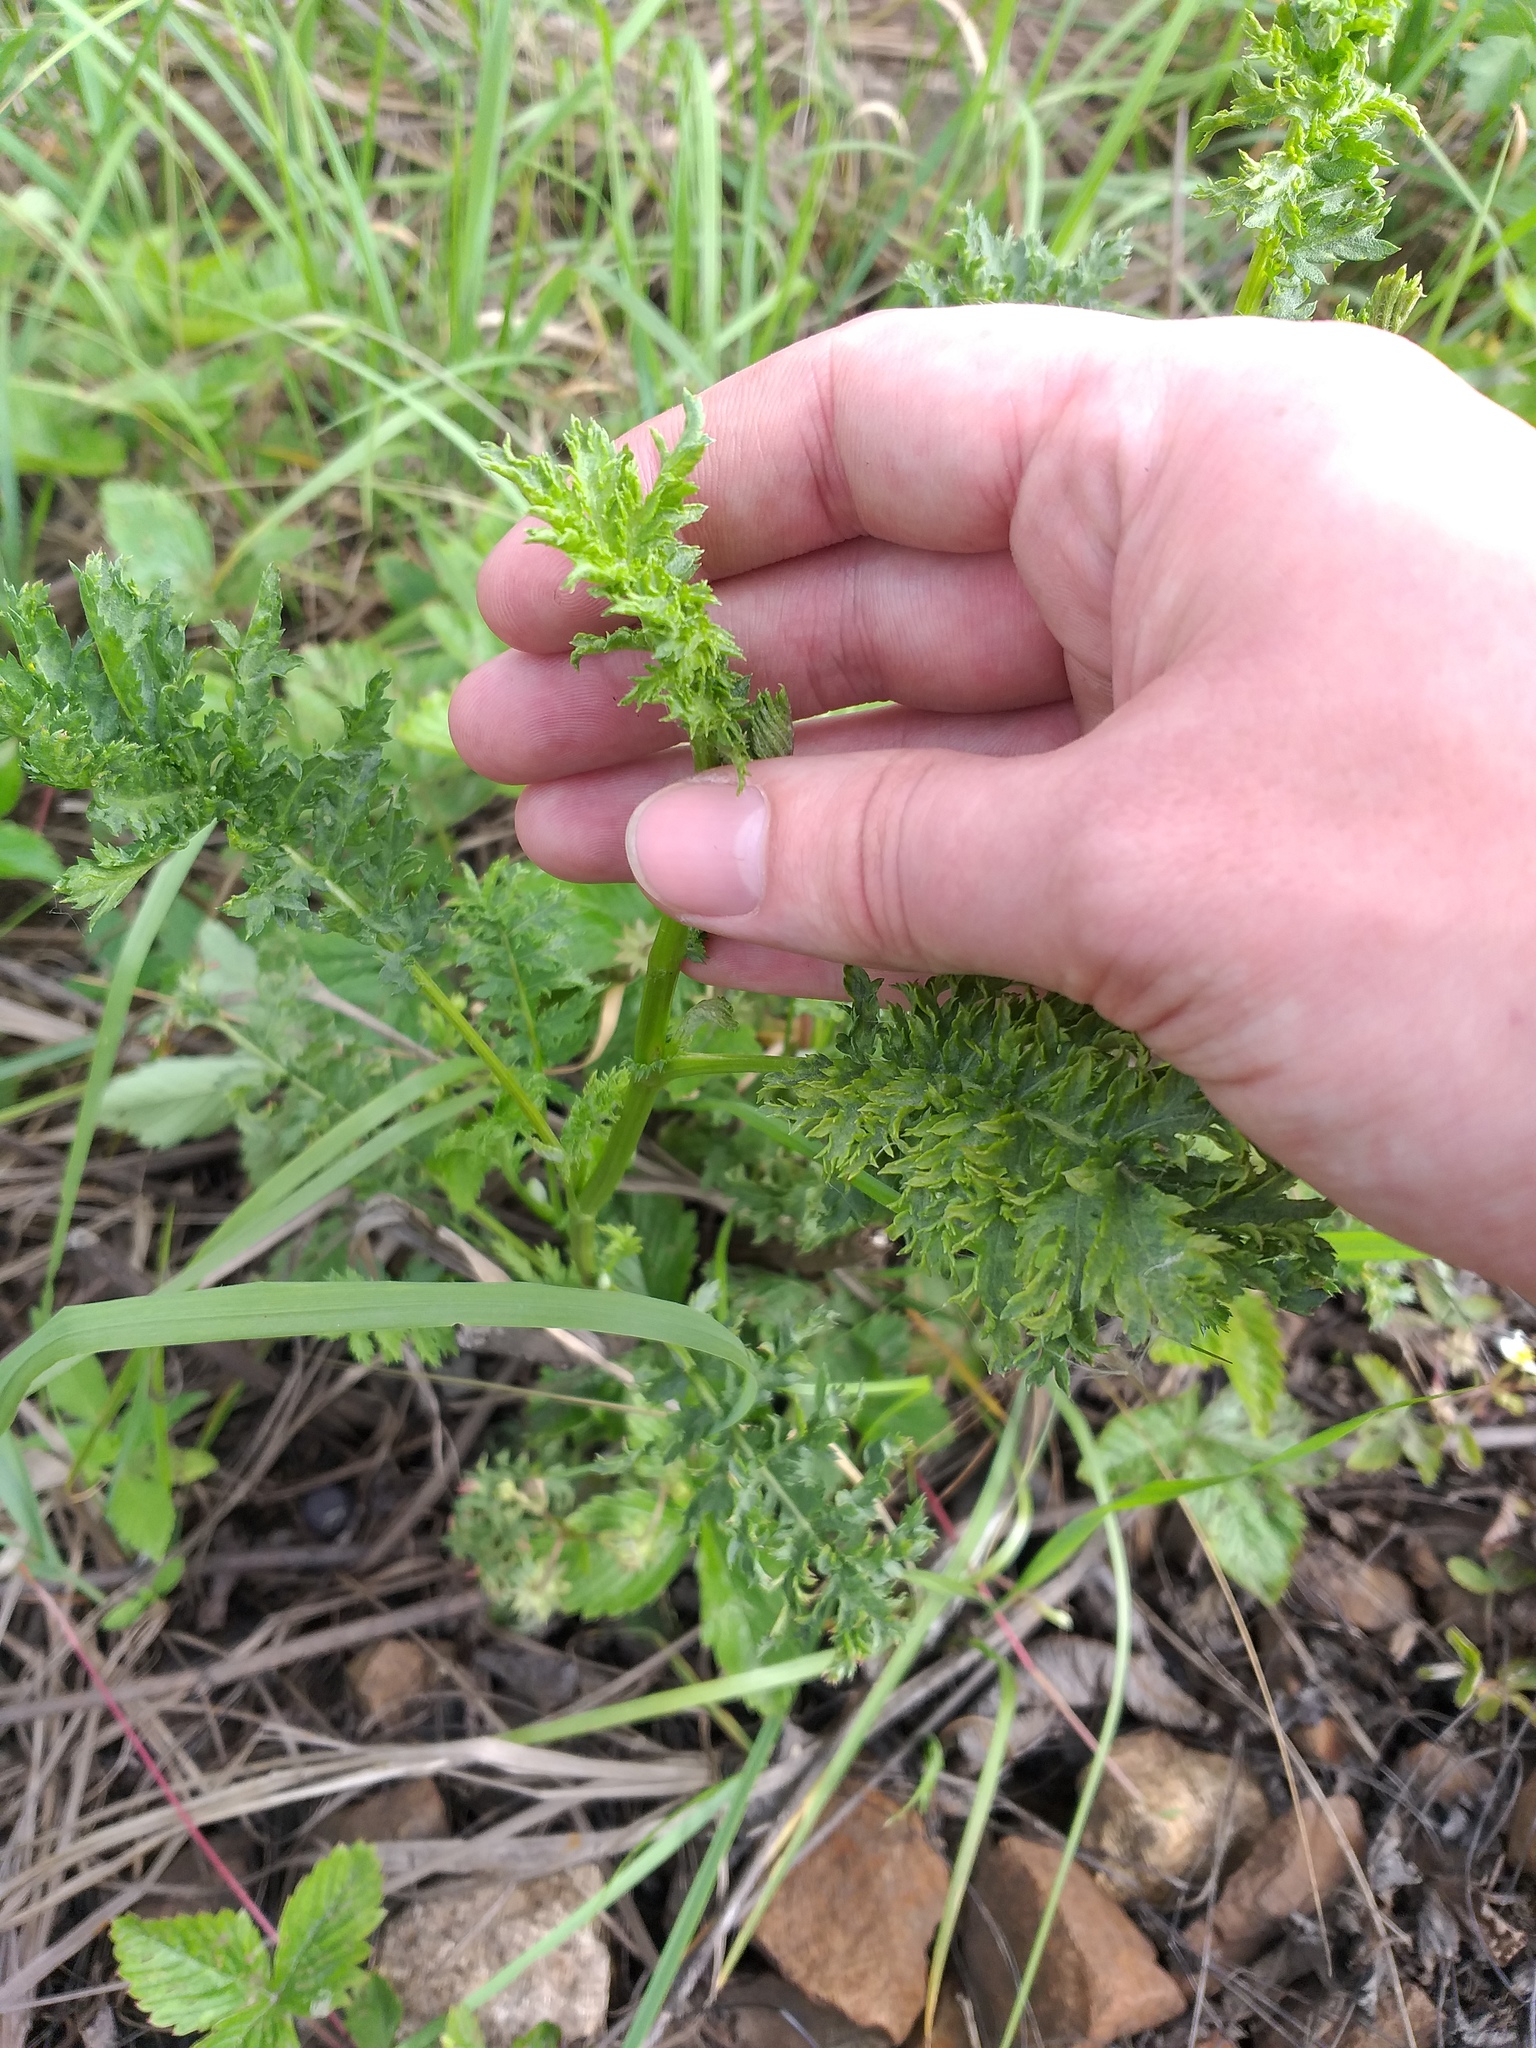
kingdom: Plantae
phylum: Tracheophyta
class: Magnoliopsida
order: Asterales
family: Asteraceae
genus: Tanacetum
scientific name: Tanacetum vulgare
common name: Common tansy
